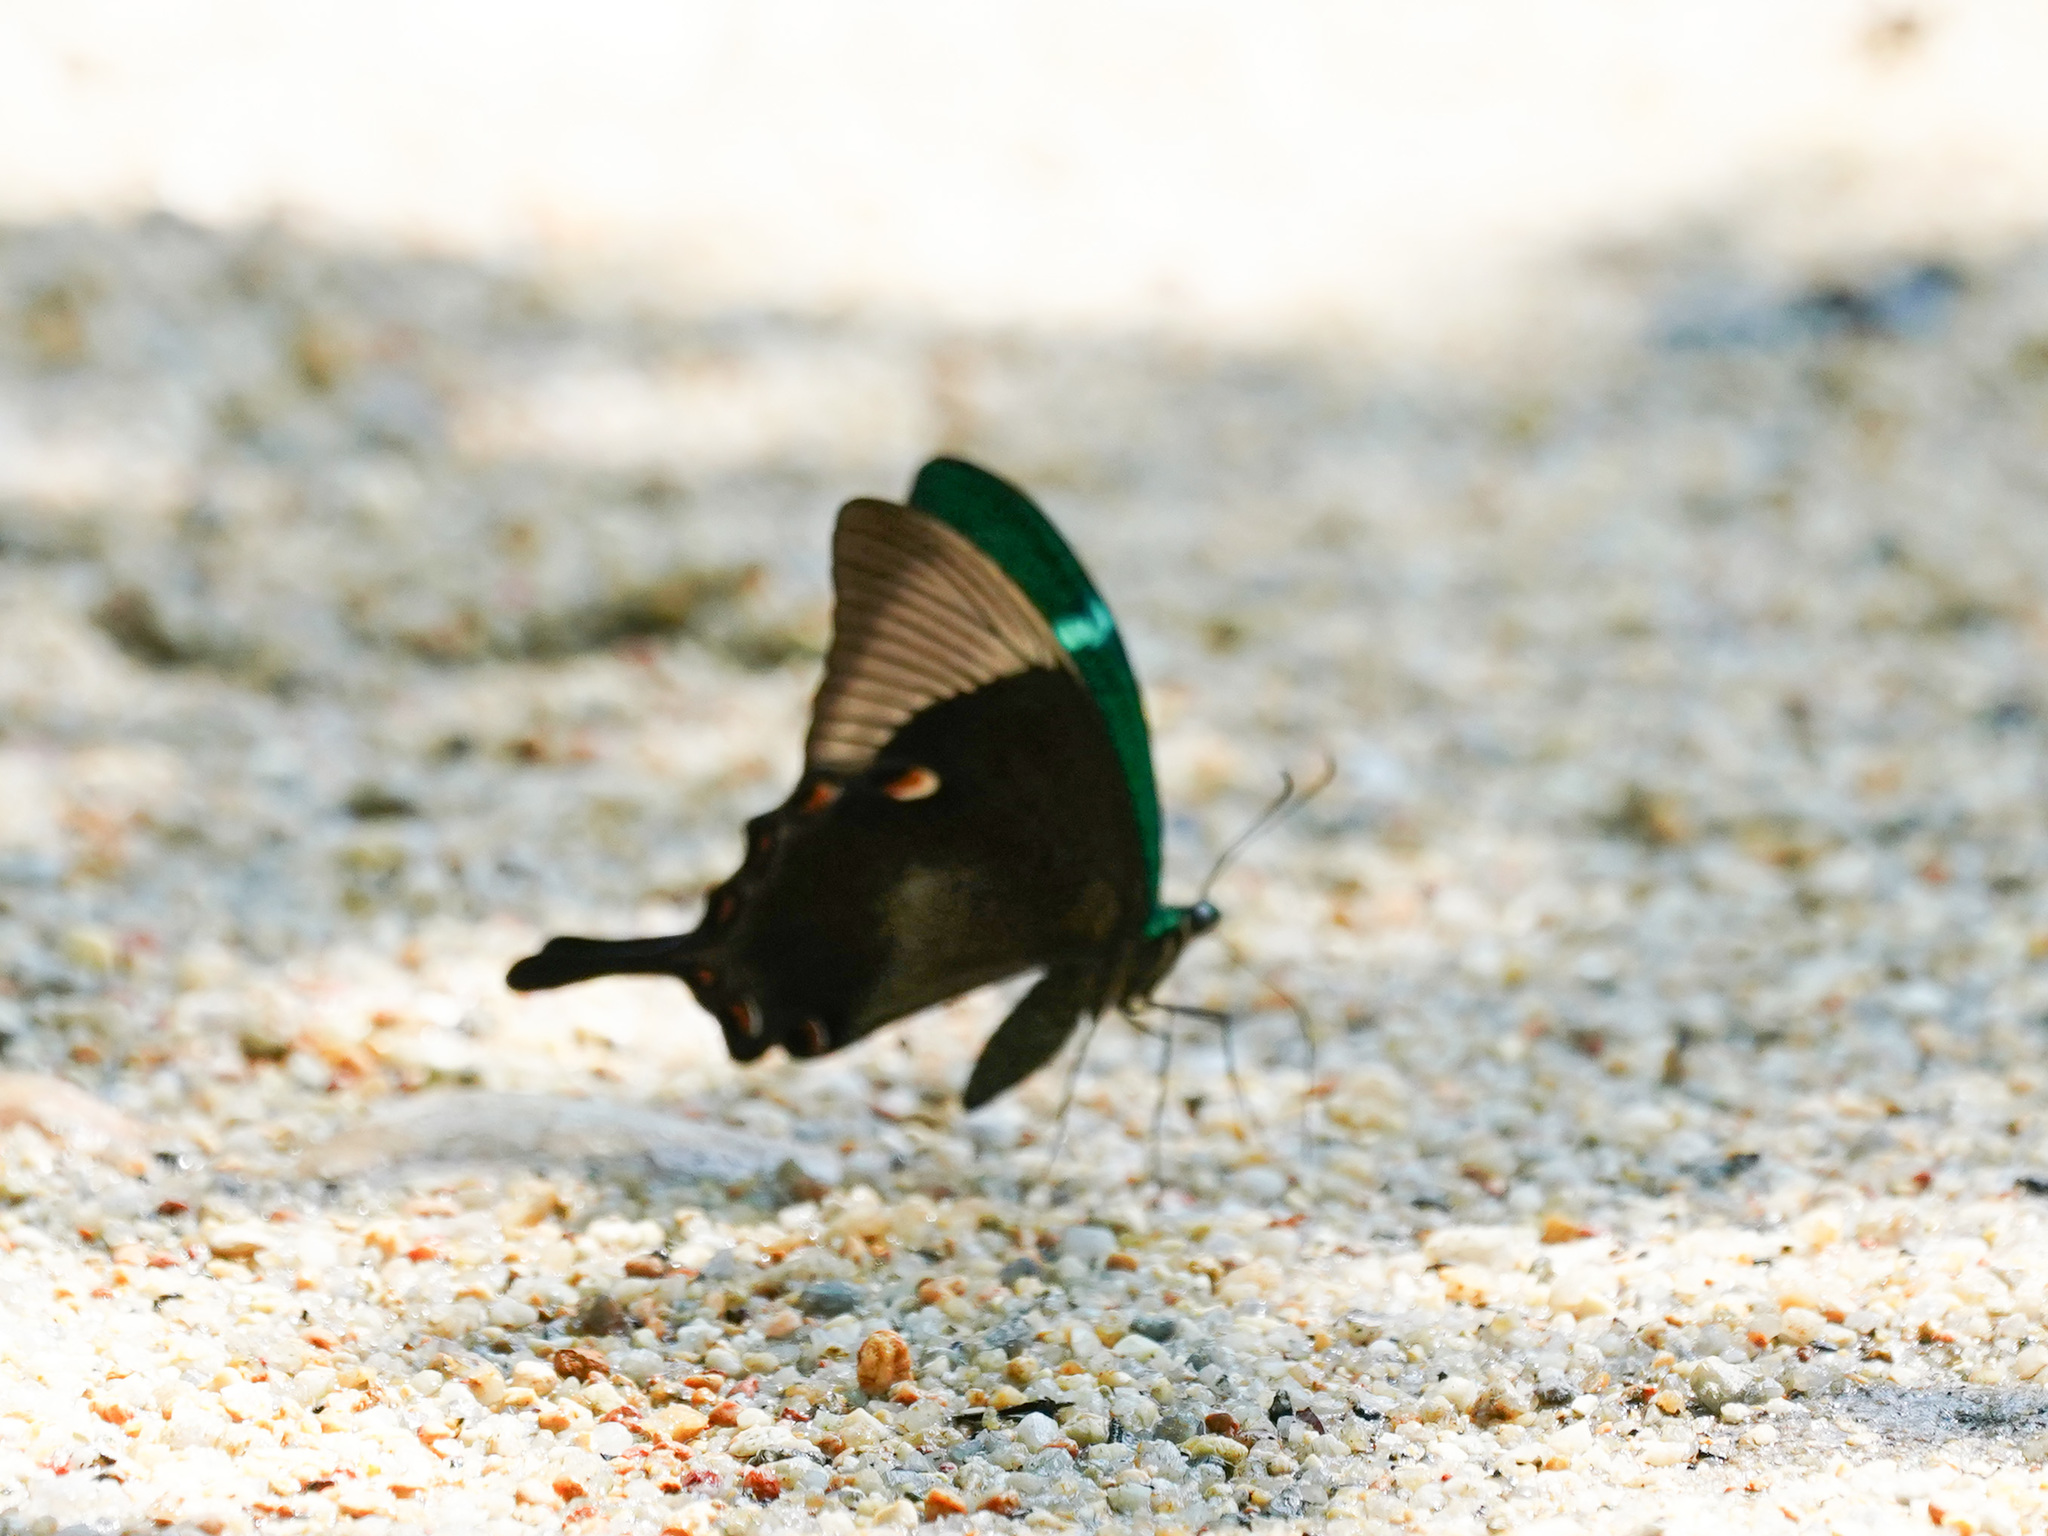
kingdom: Animalia
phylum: Arthropoda
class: Insecta
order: Lepidoptera
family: Papilionidae
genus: Papilio
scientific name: Papilio palinurus
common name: Banded peacock
